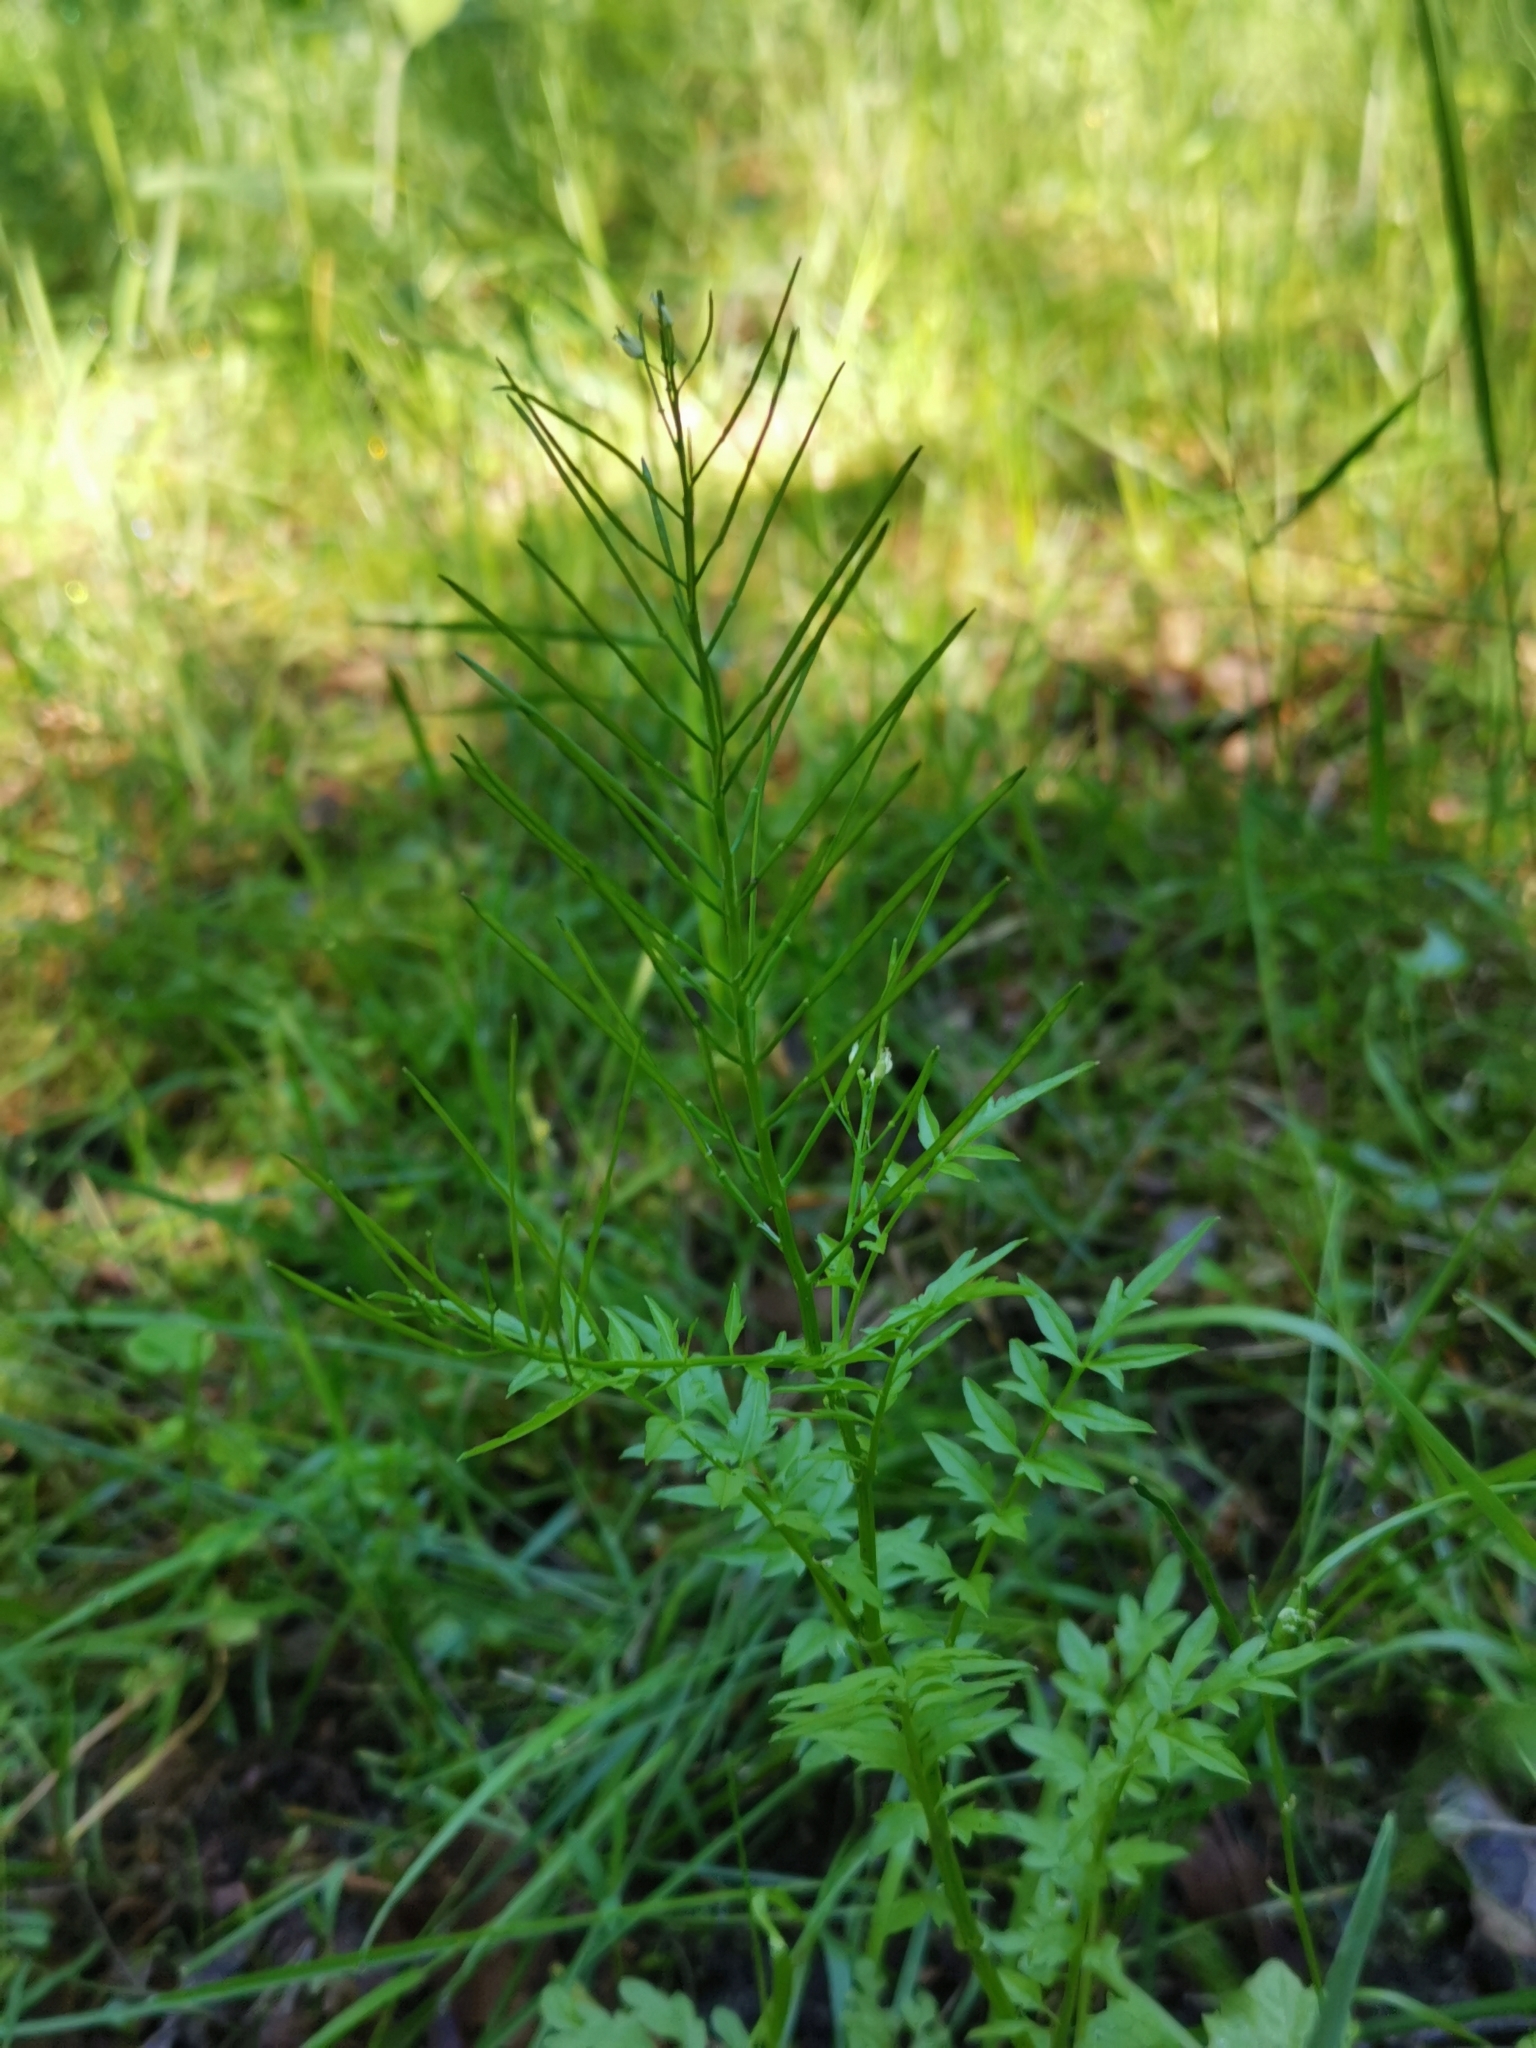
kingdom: Plantae
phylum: Tracheophyta
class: Magnoliopsida
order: Brassicales
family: Brassicaceae
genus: Cardamine
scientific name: Cardamine impatiens
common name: Narrow-leaved bitter-cress
